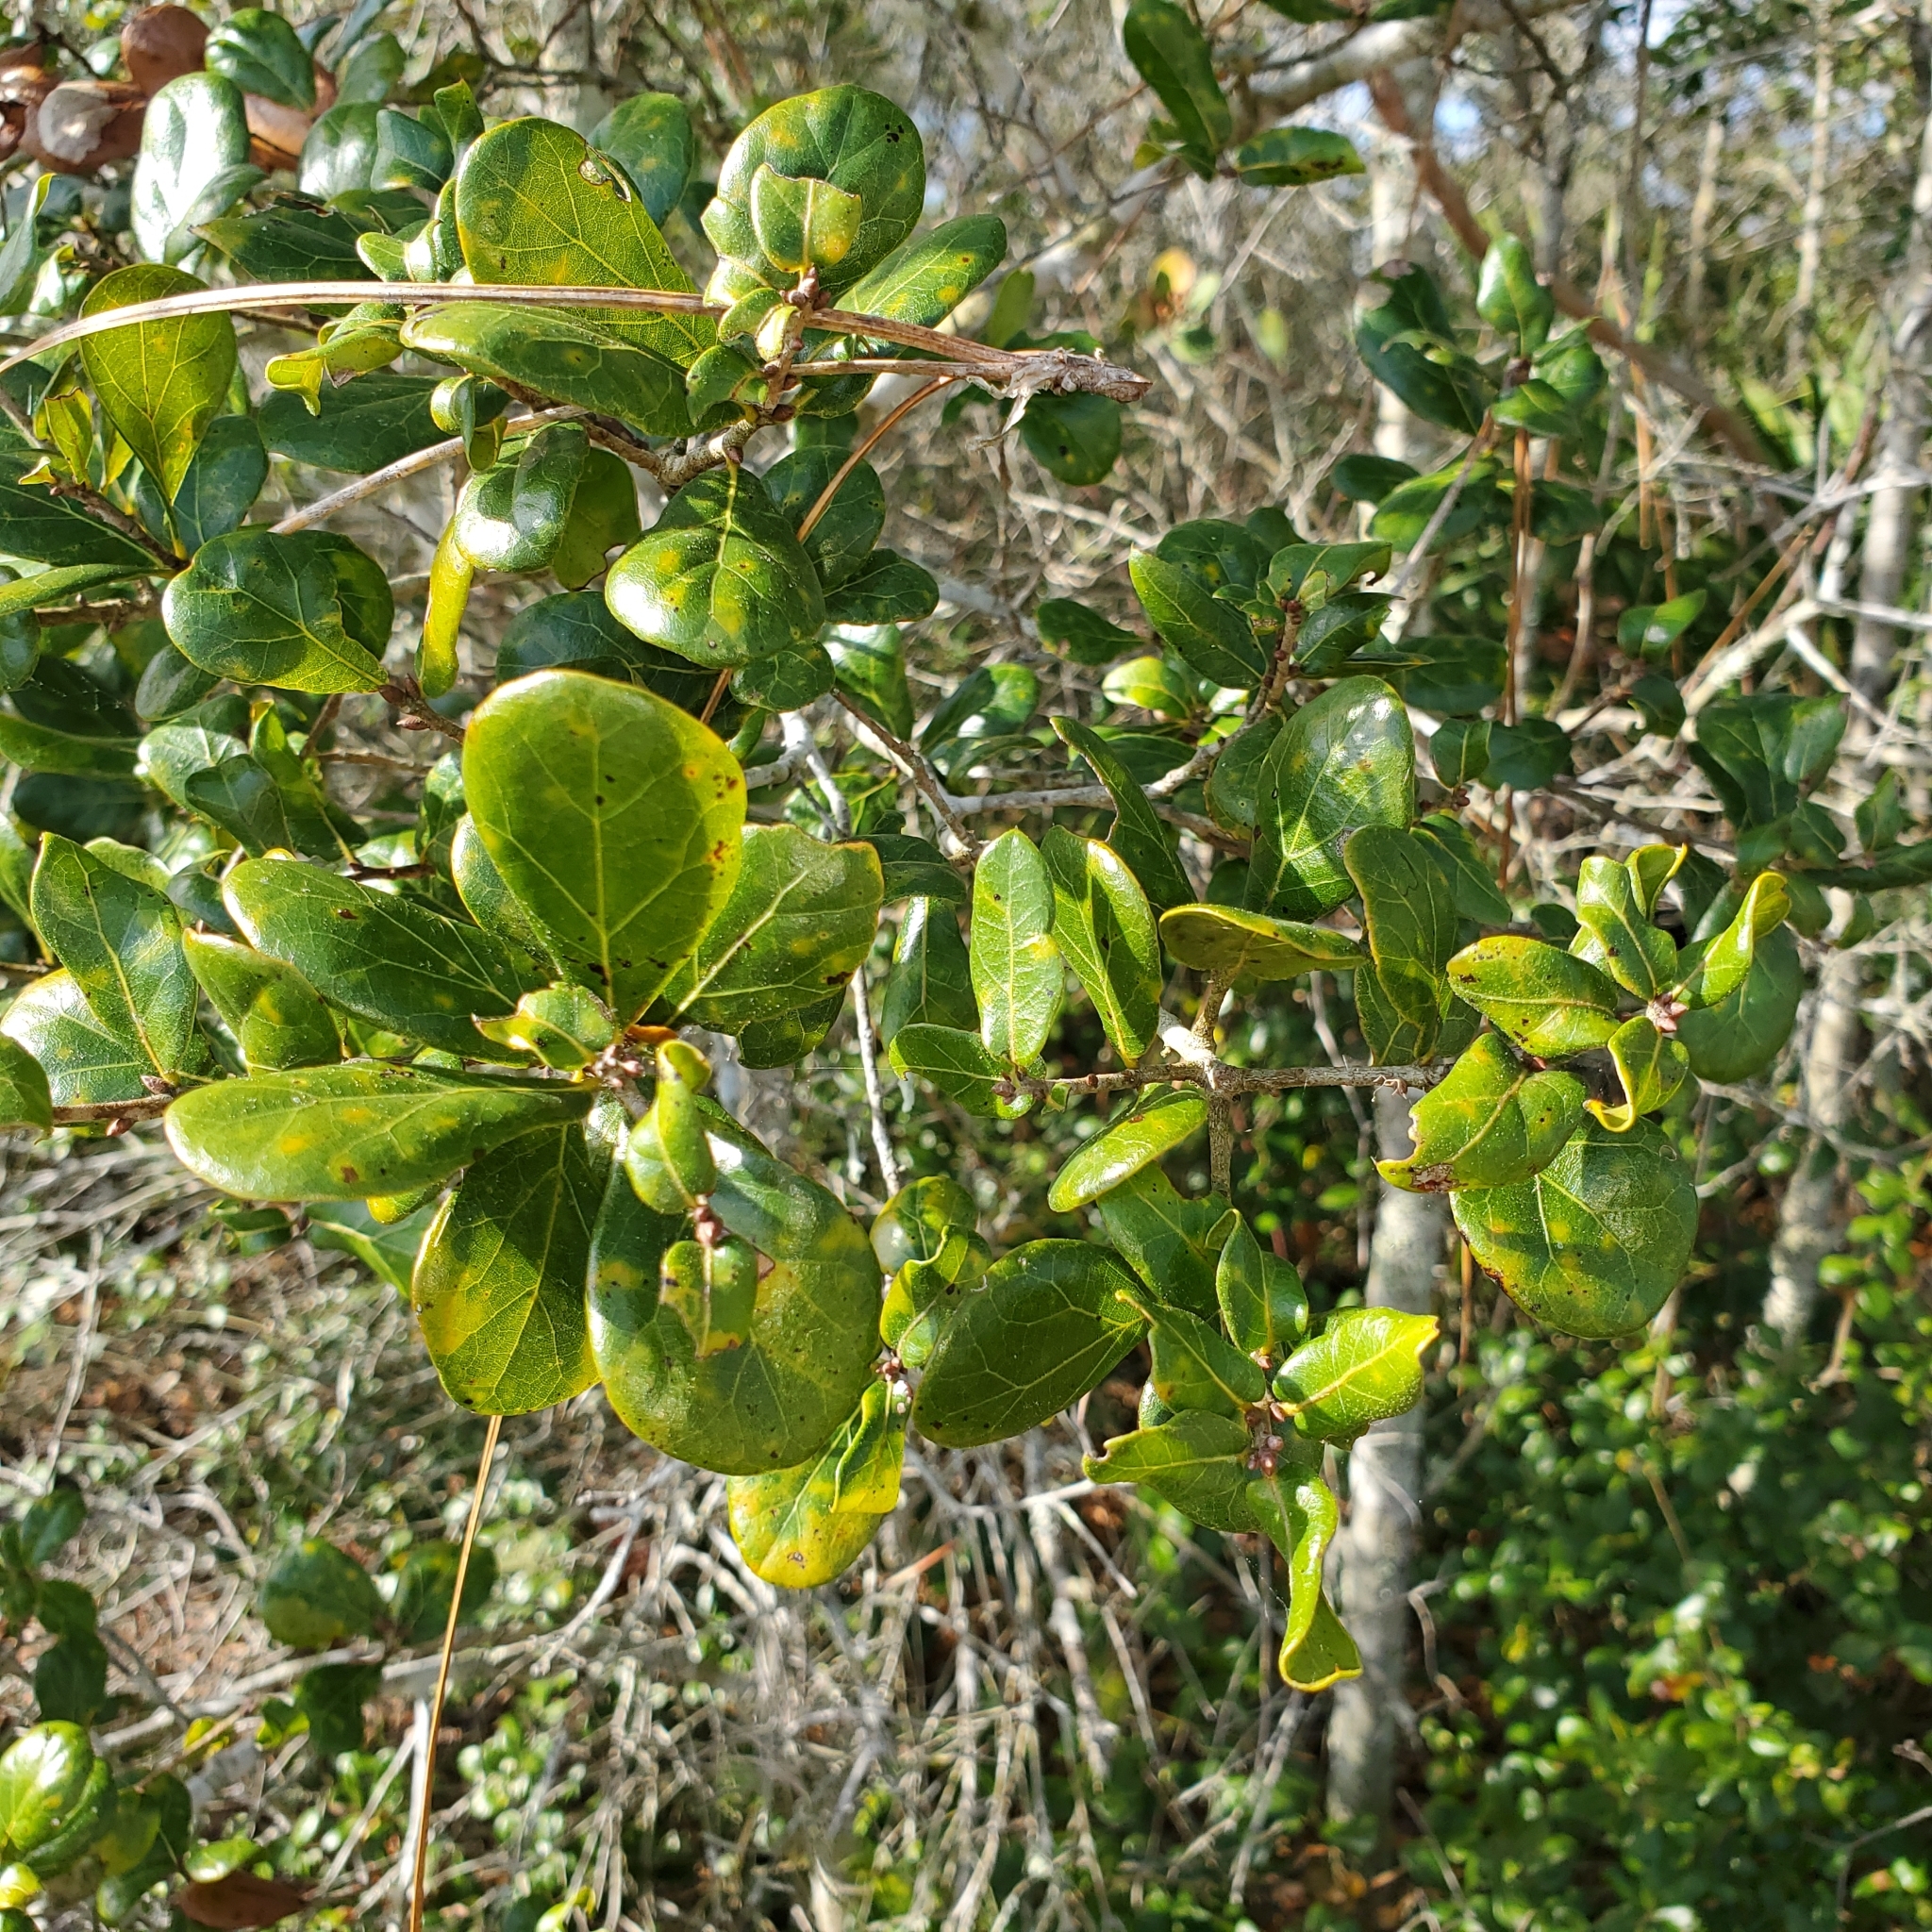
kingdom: Plantae
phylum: Tracheophyta
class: Magnoliopsida
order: Fagales
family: Fagaceae
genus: Quercus
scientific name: Quercus myrtifolia
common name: Myrtle oak
